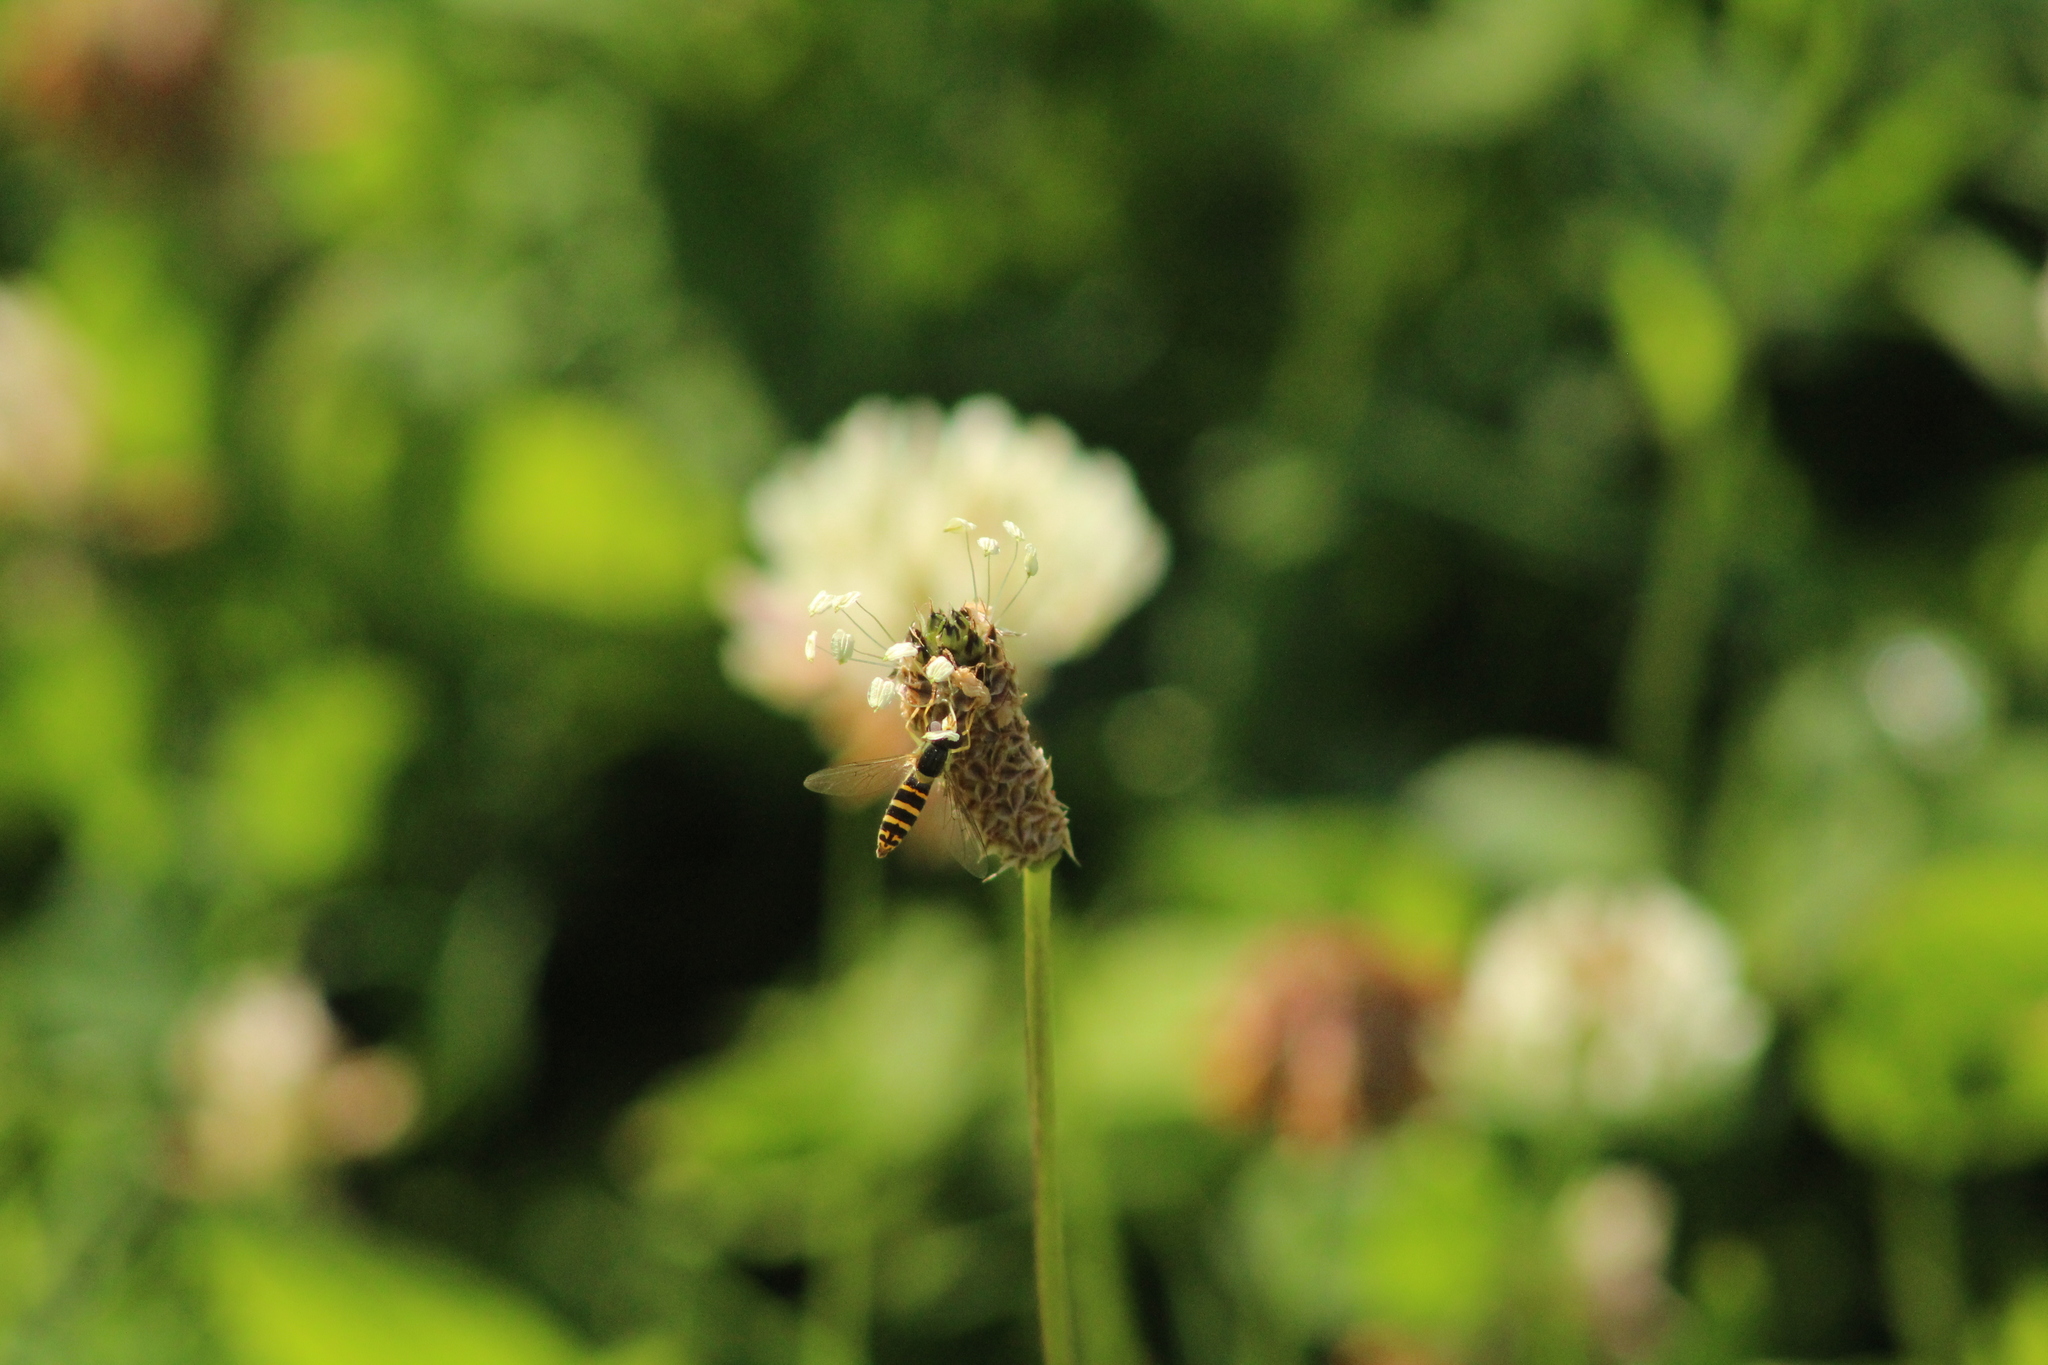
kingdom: Animalia
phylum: Arthropoda
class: Insecta
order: Diptera
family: Syrphidae
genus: Sphaerophoria
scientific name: Sphaerophoria
